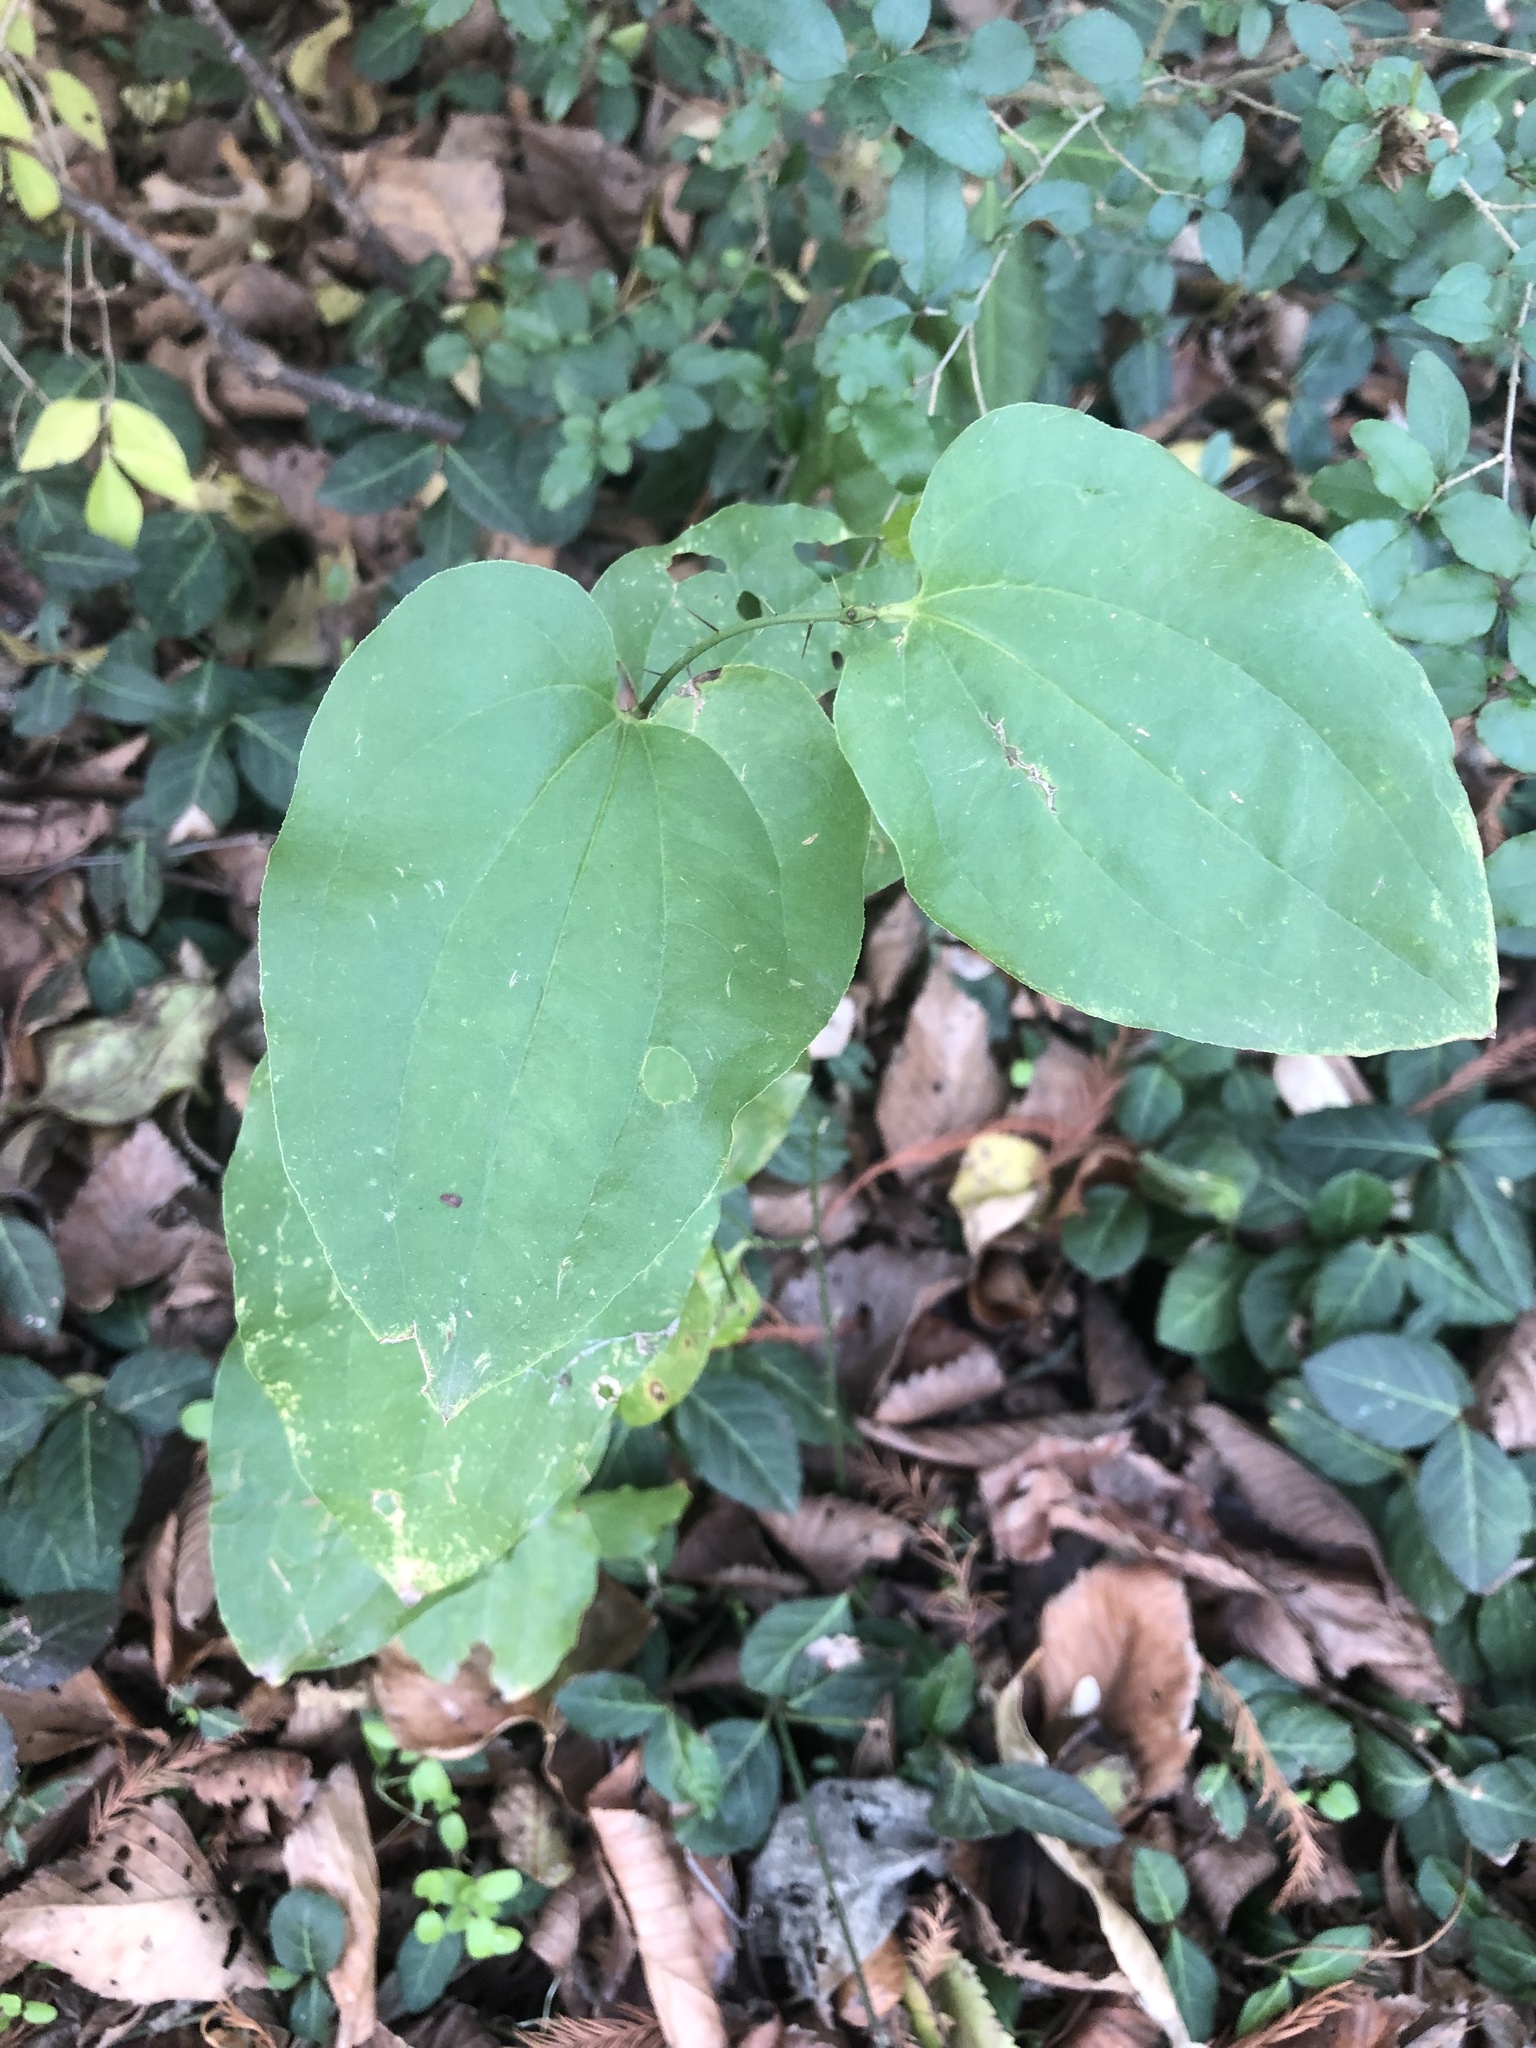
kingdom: Plantae
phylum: Tracheophyta
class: Liliopsida
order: Liliales
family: Smilacaceae
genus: Smilax
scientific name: Smilax tamnoides
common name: Hellfetter
